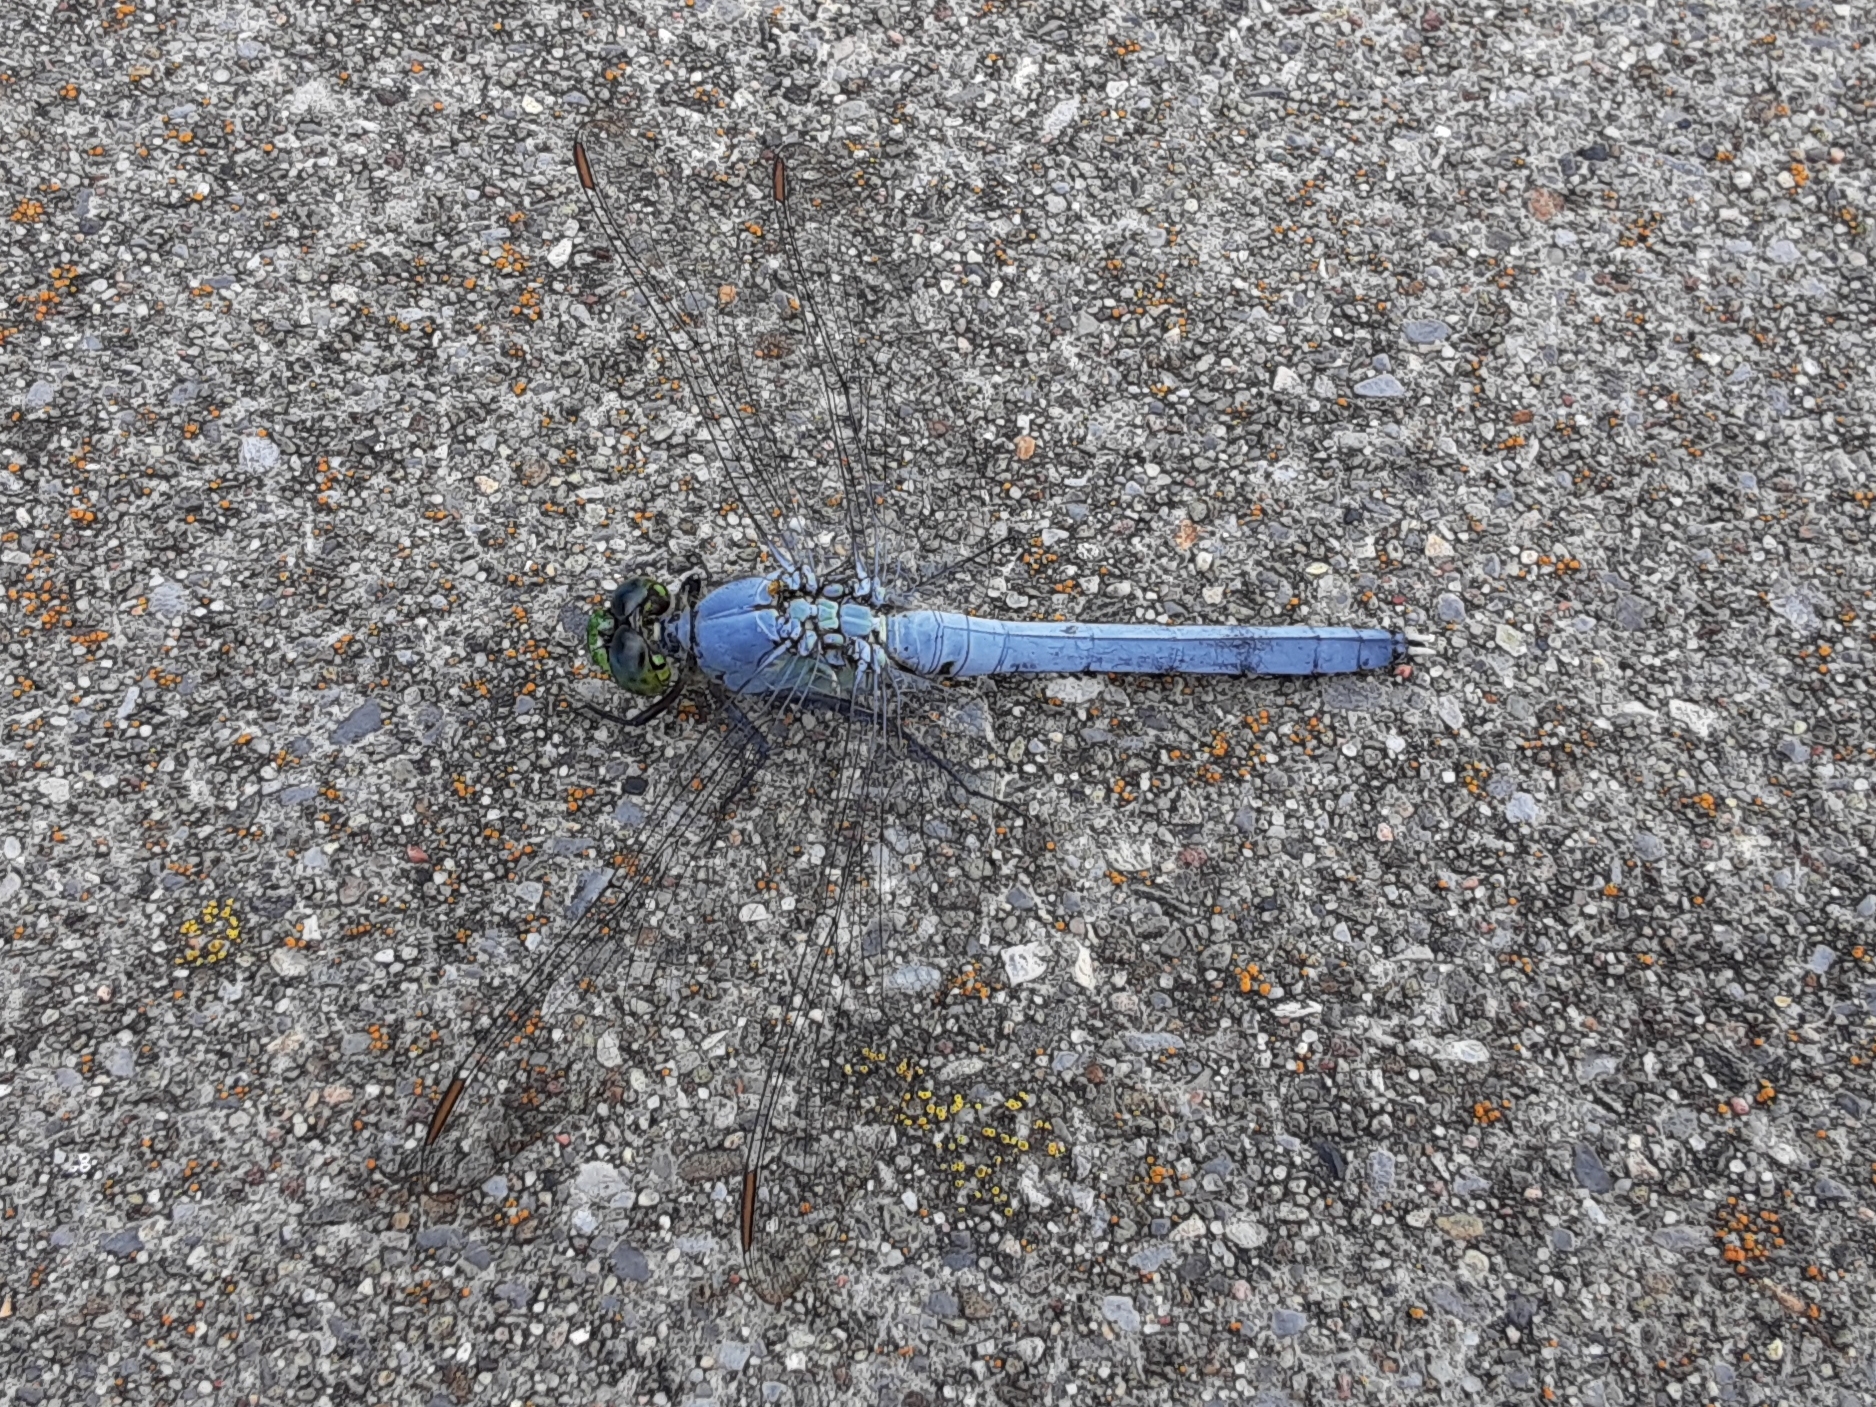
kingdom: Animalia
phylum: Arthropoda
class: Insecta
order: Odonata
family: Libellulidae
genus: Erythemis
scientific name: Erythemis simplicicollis
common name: Eastern pondhawk
